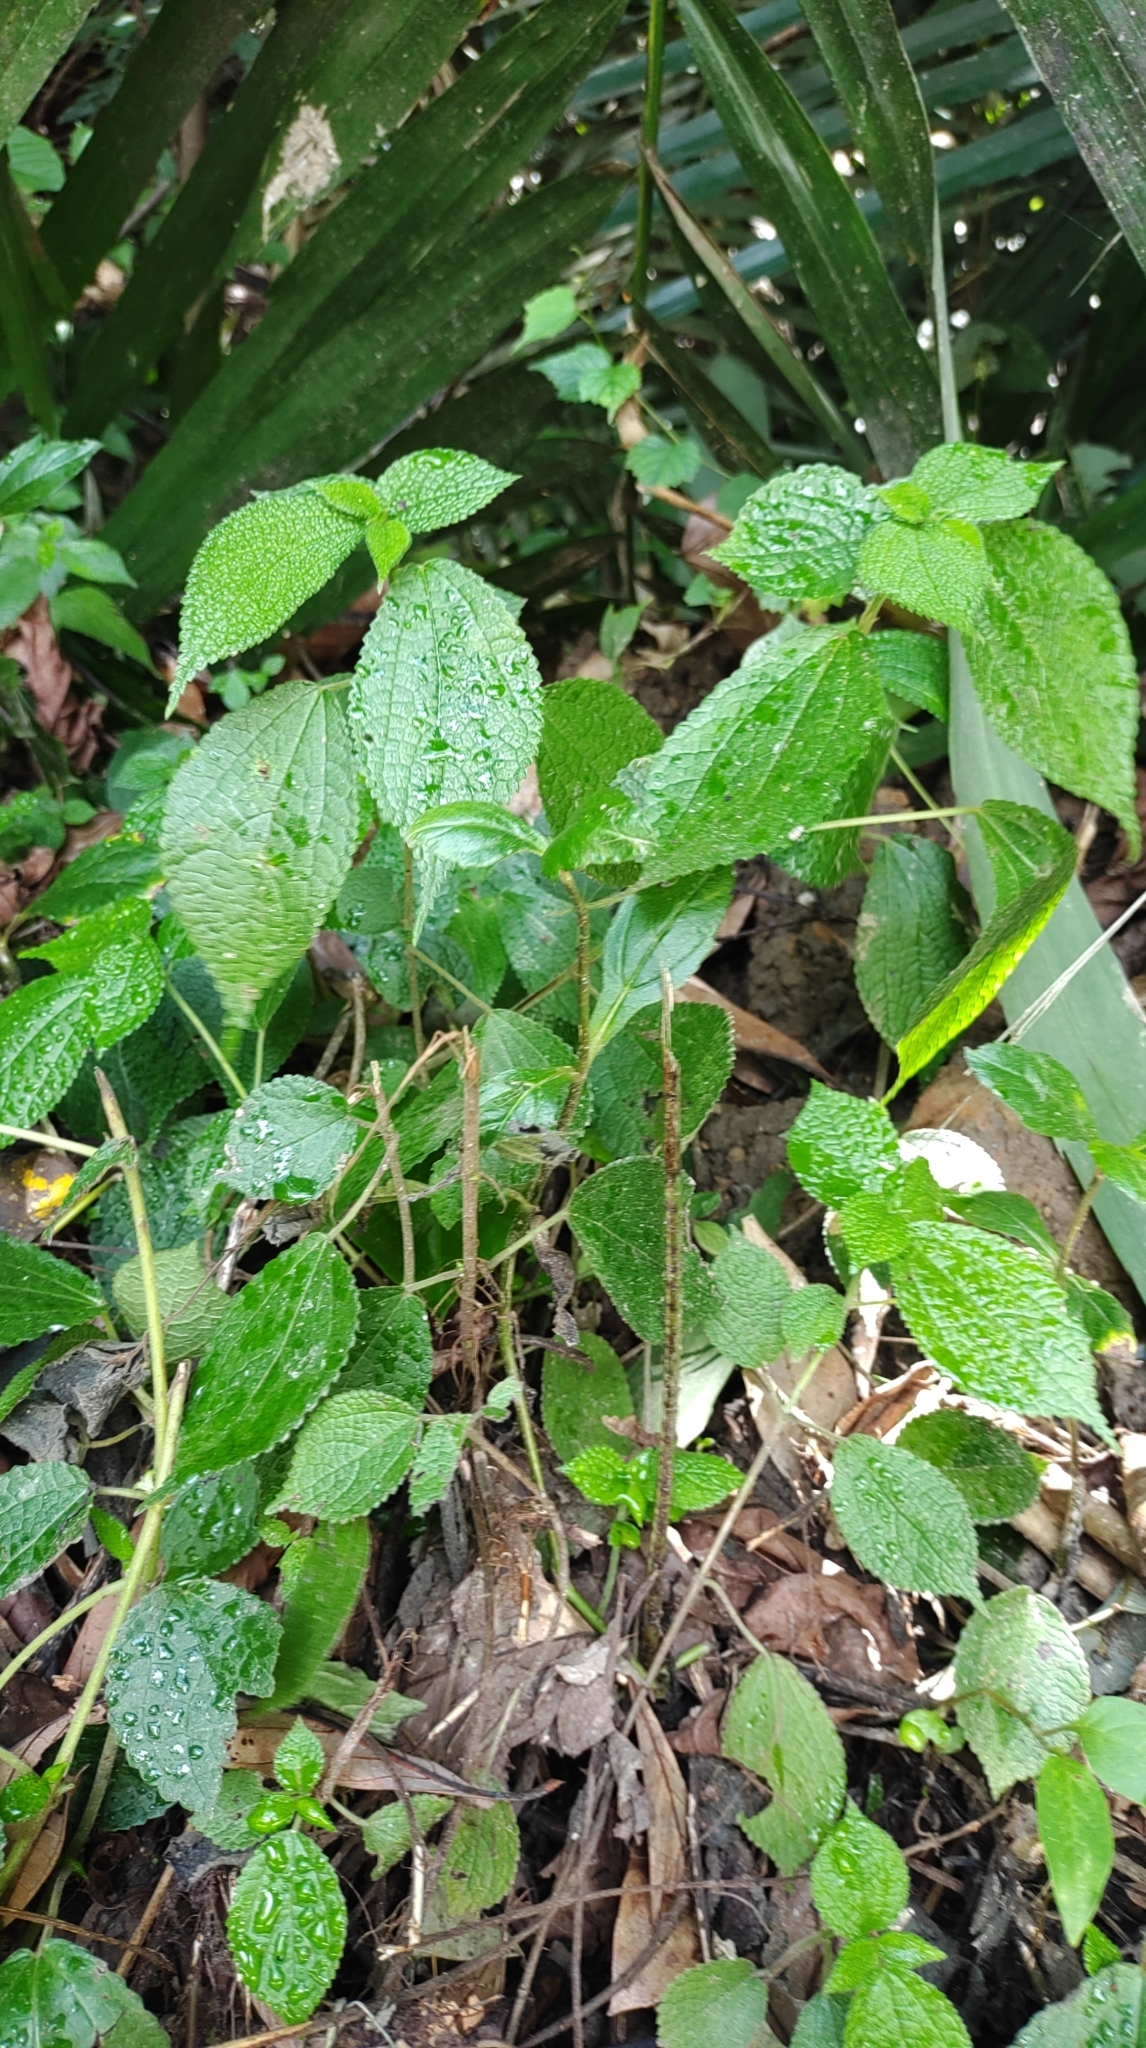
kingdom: Plantae
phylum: Tracheophyta
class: Magnoliopsida
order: Rosales
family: Urticaceae
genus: Boehmeria
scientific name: Boehmeria pilosiuscula
